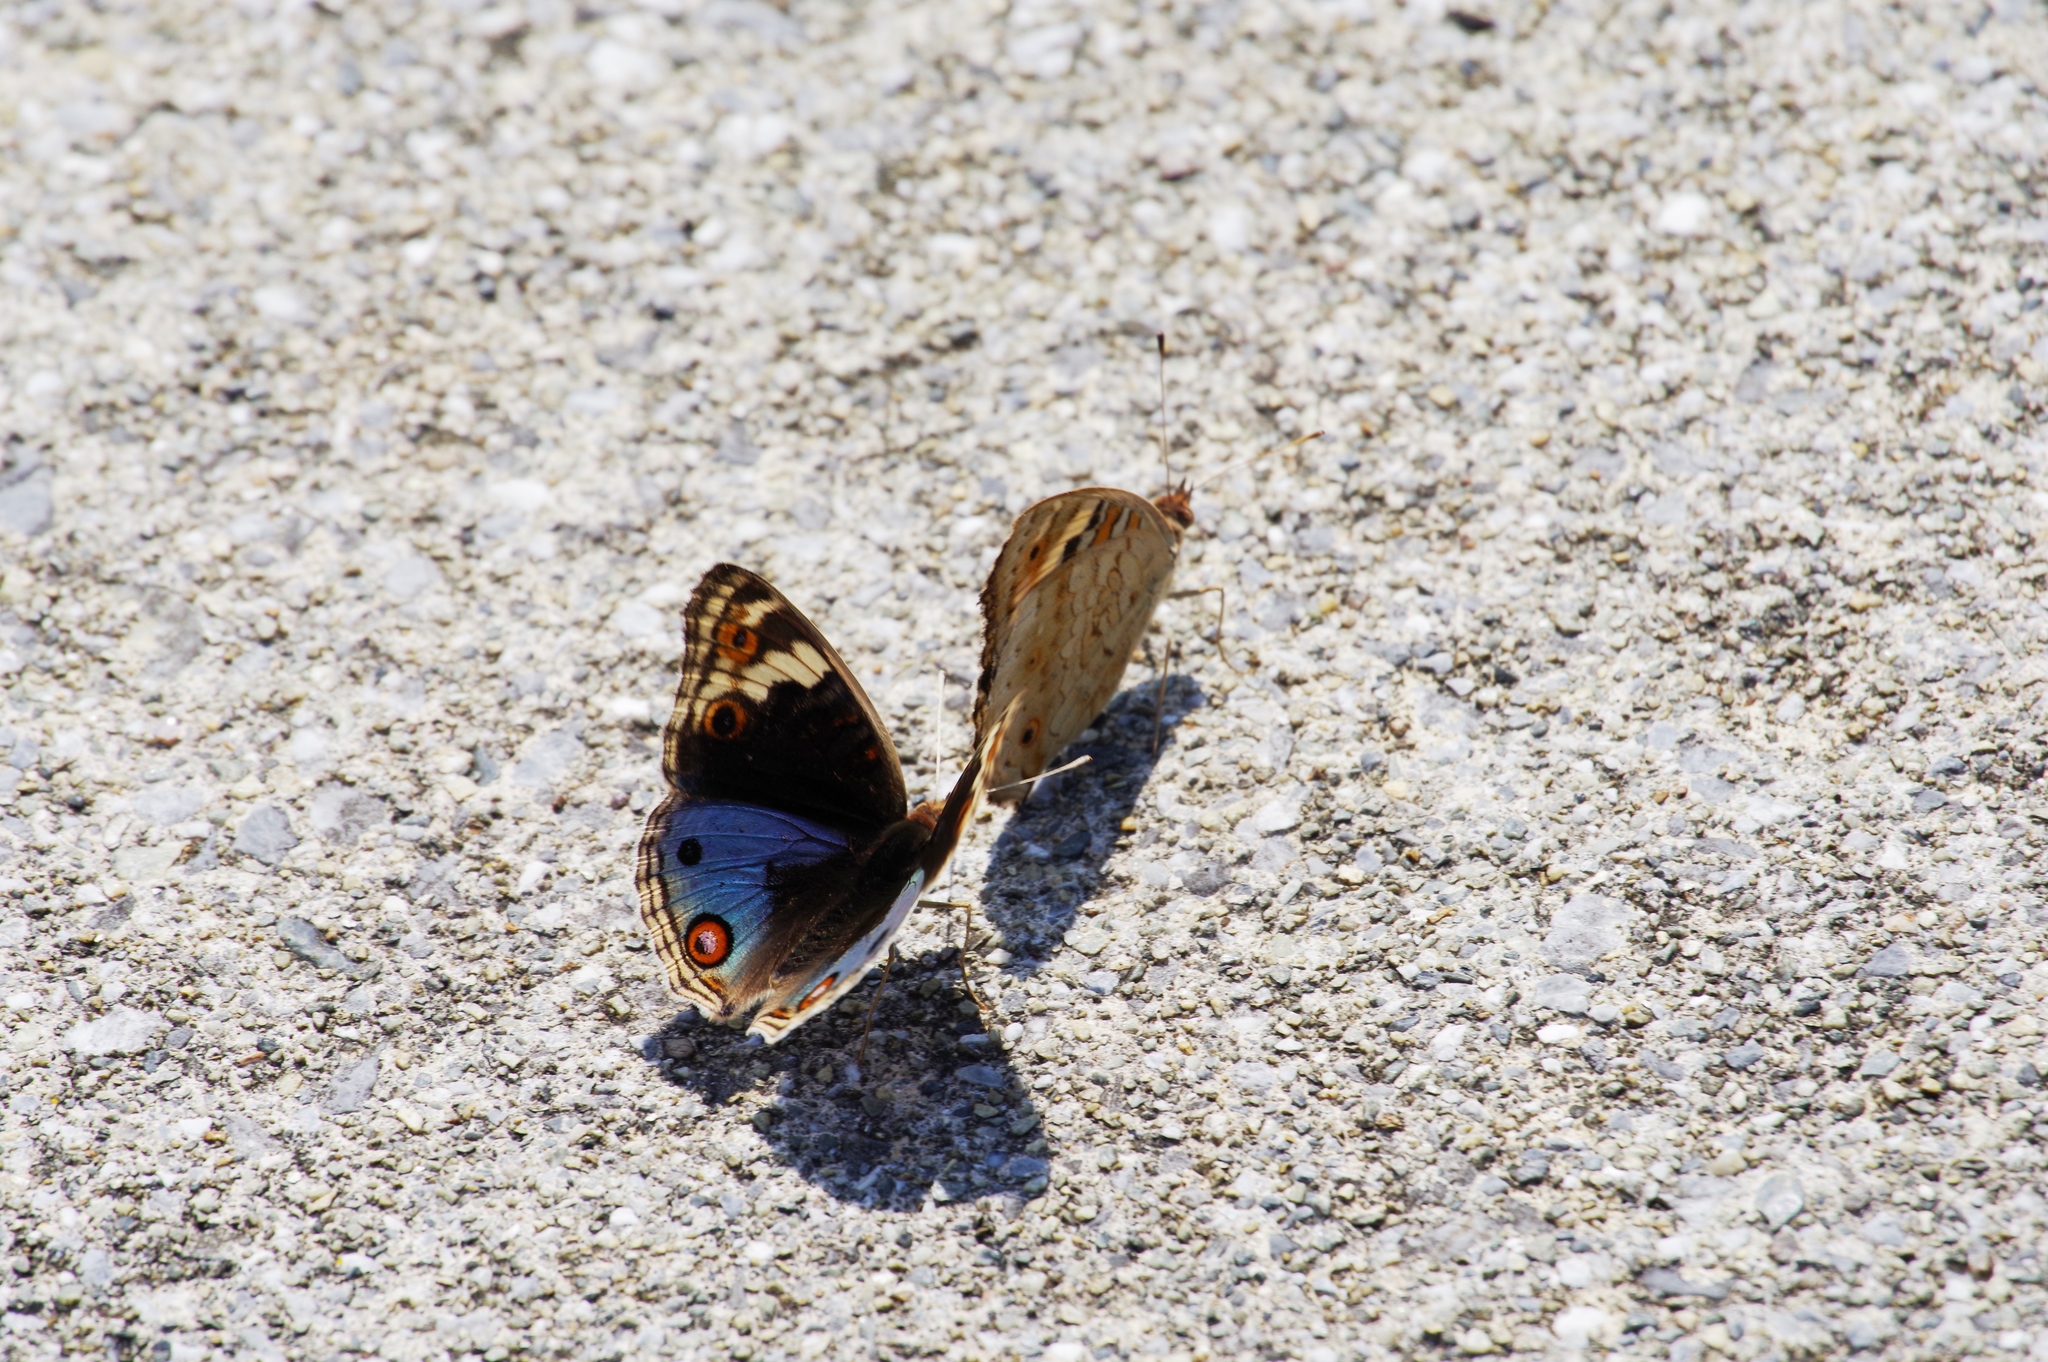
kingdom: Animalia
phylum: Arthropoda
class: Insecta
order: Lepidoptera
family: Nymphalidae
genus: Junonia
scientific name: Junonia orithya
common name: Blue pansy
